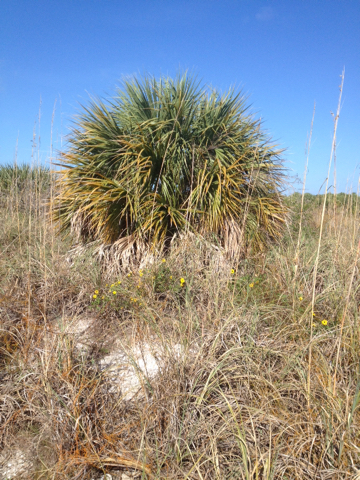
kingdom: Plantae
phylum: Tracheophyta
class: Liliopsida
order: Arecales
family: Arecaceae
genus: Sabal
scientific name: Sabal palmetto
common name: Blue palmetto
